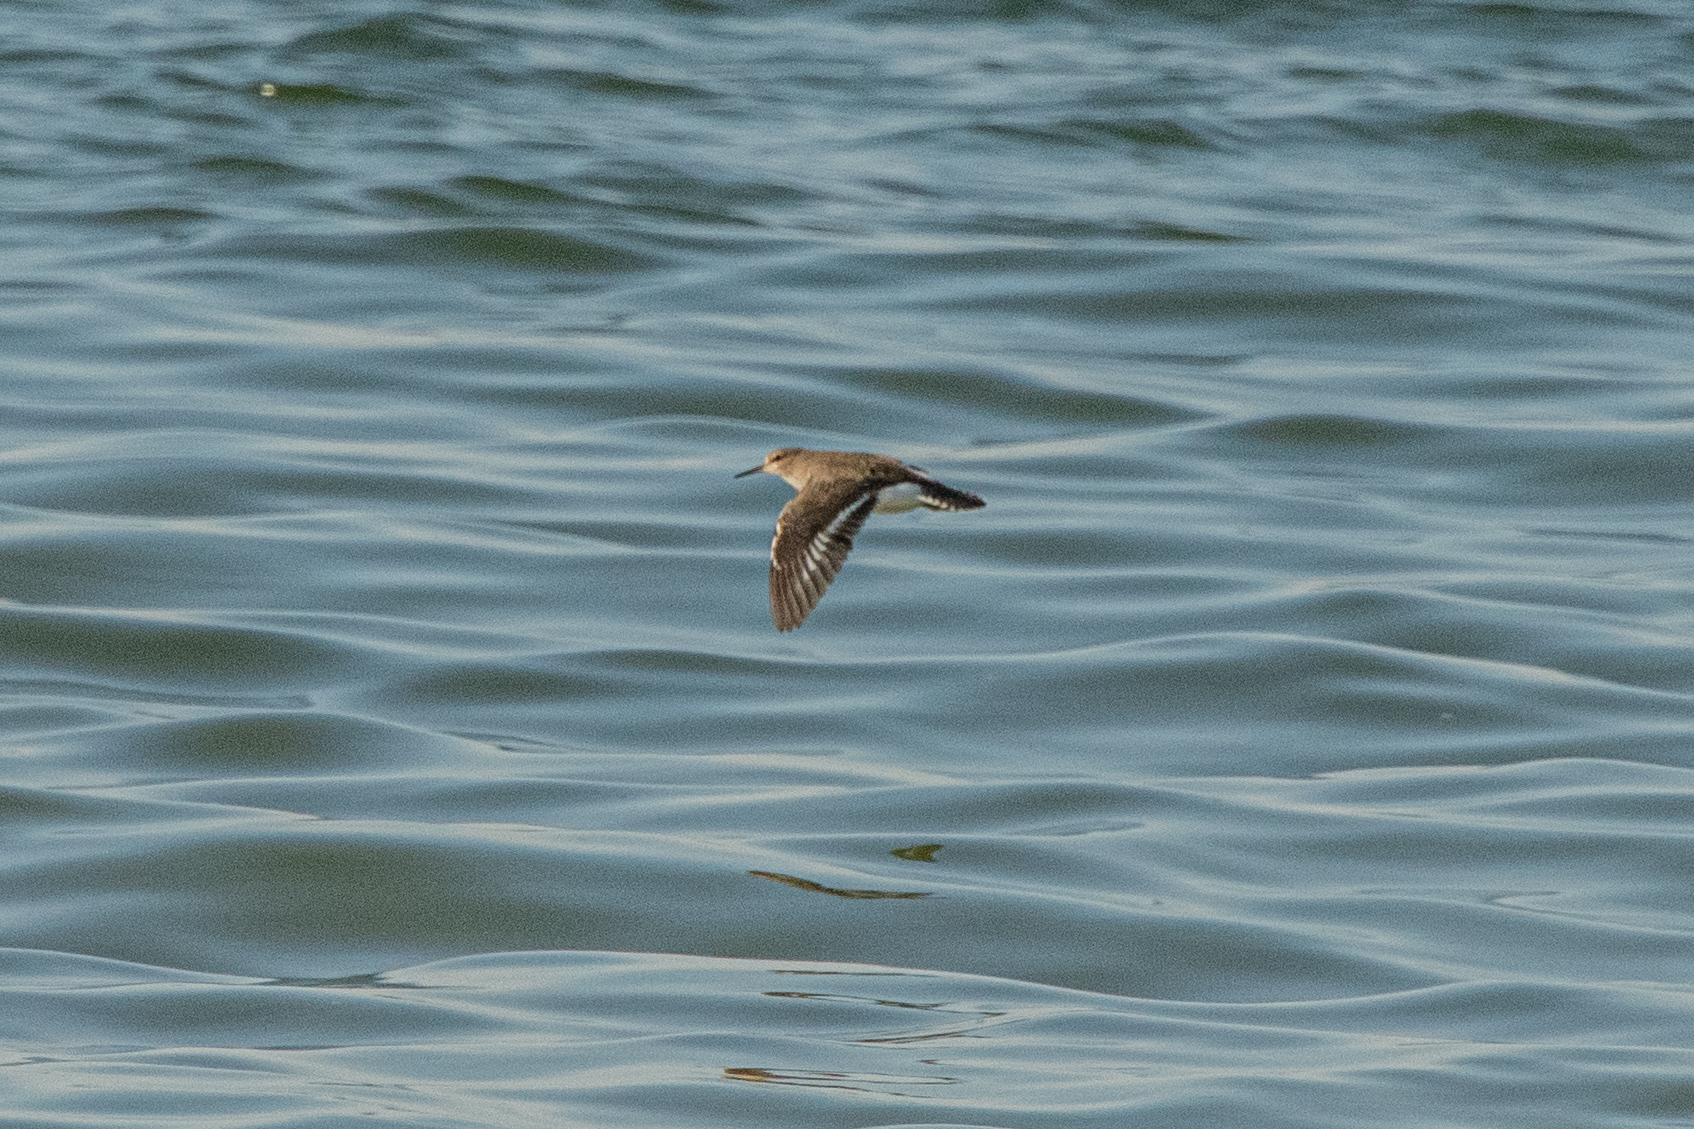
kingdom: Animalia
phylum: Chordata
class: Aves
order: Charadriiformes
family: Scolopacidae
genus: Actitis
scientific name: Actitis hypoleucos
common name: Common sandpiper
